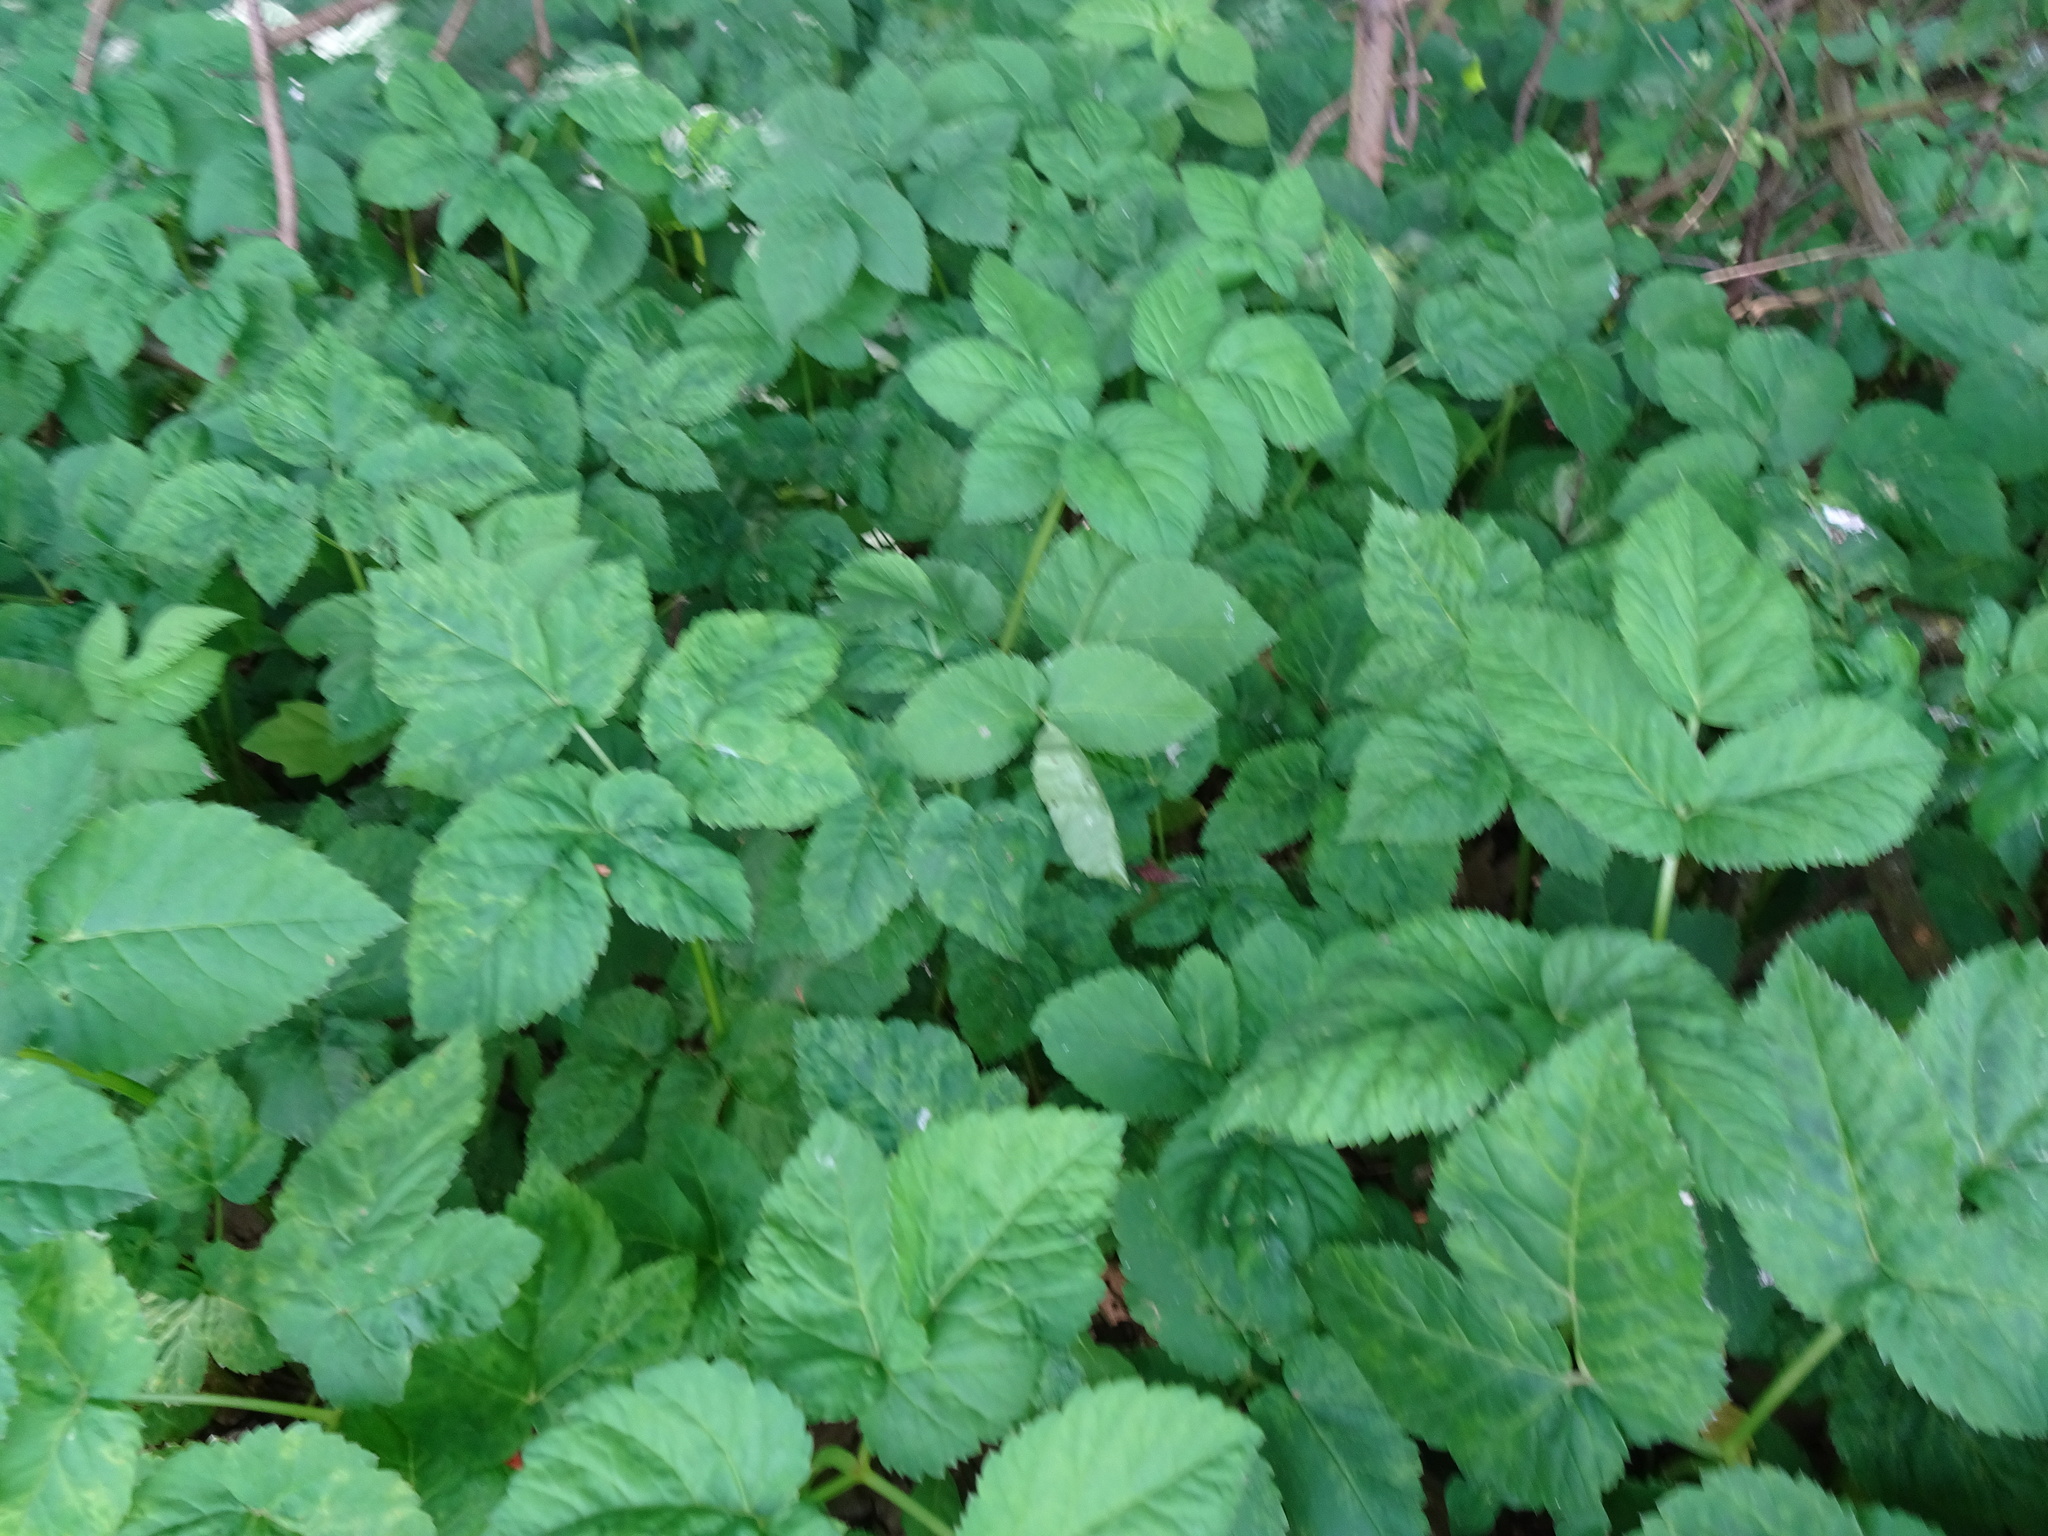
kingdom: Plantae
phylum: Tracheophyta
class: Magnoliopsida
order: Apiales
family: Apiaceae
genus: Aegopodium
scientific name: Aegopodium podagraria
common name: Ground-elder
